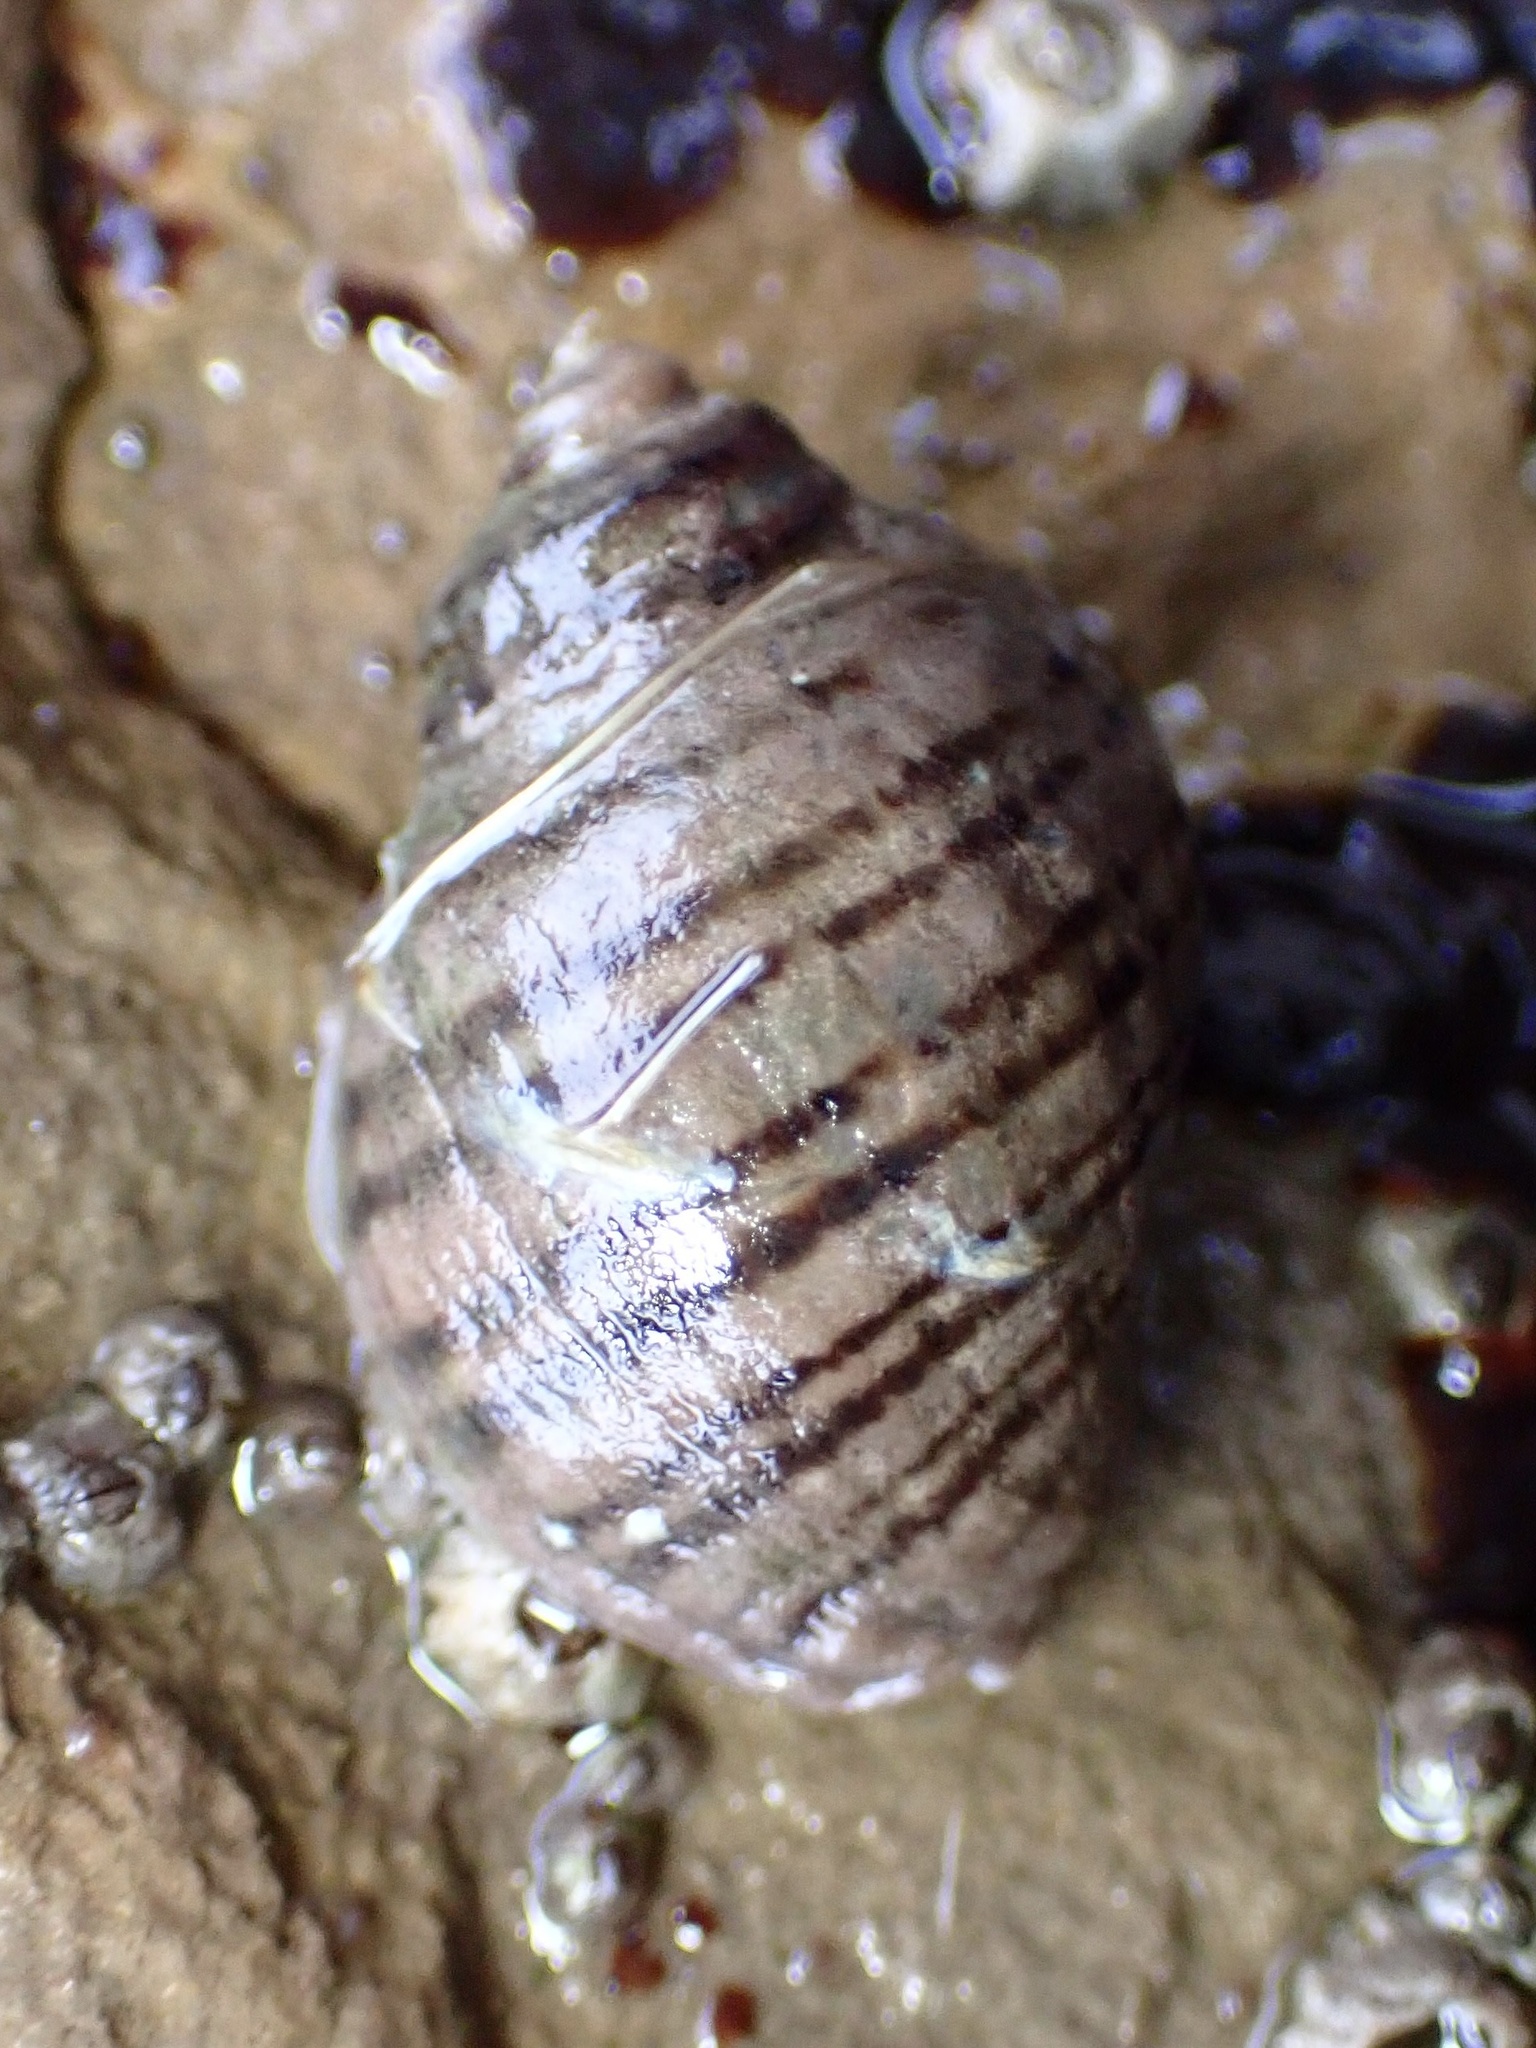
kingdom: Animalia
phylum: Mollusca
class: Gastropoda
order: Neogastropoda
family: Muricidae
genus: Nucella
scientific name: Nucella ostrina
